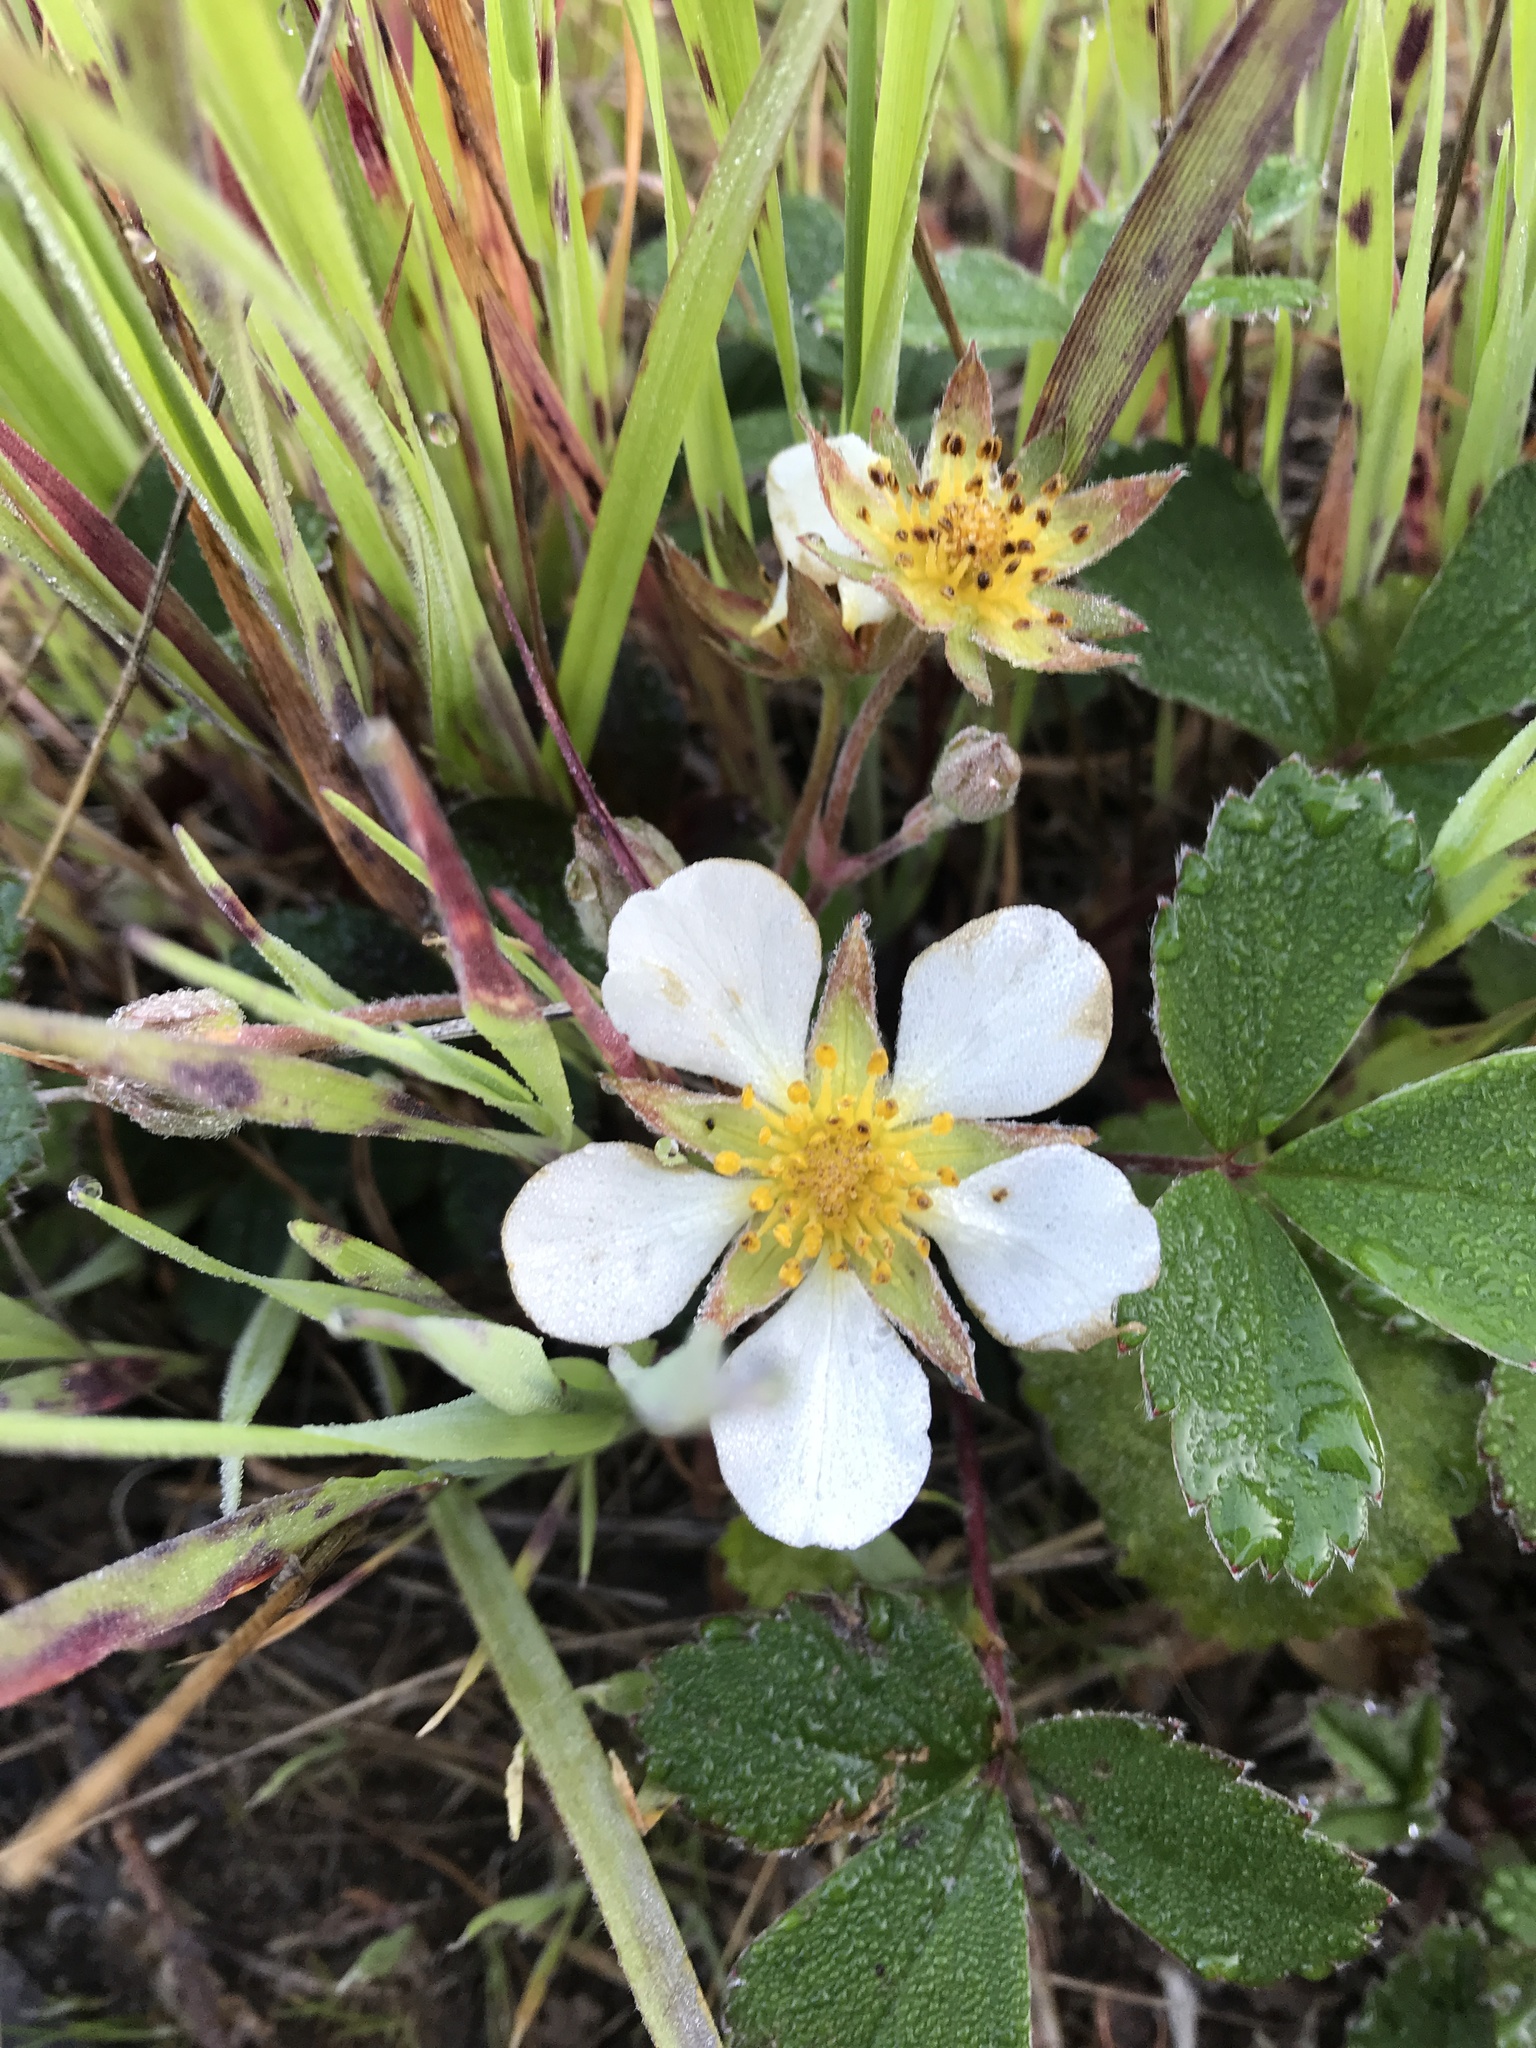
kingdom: Plantae
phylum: Tracheophyta
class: Magnoliopsida
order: Rosales
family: Rosaceae
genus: Fragaria
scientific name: Fragaria chiloensis
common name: Beach strawberry
